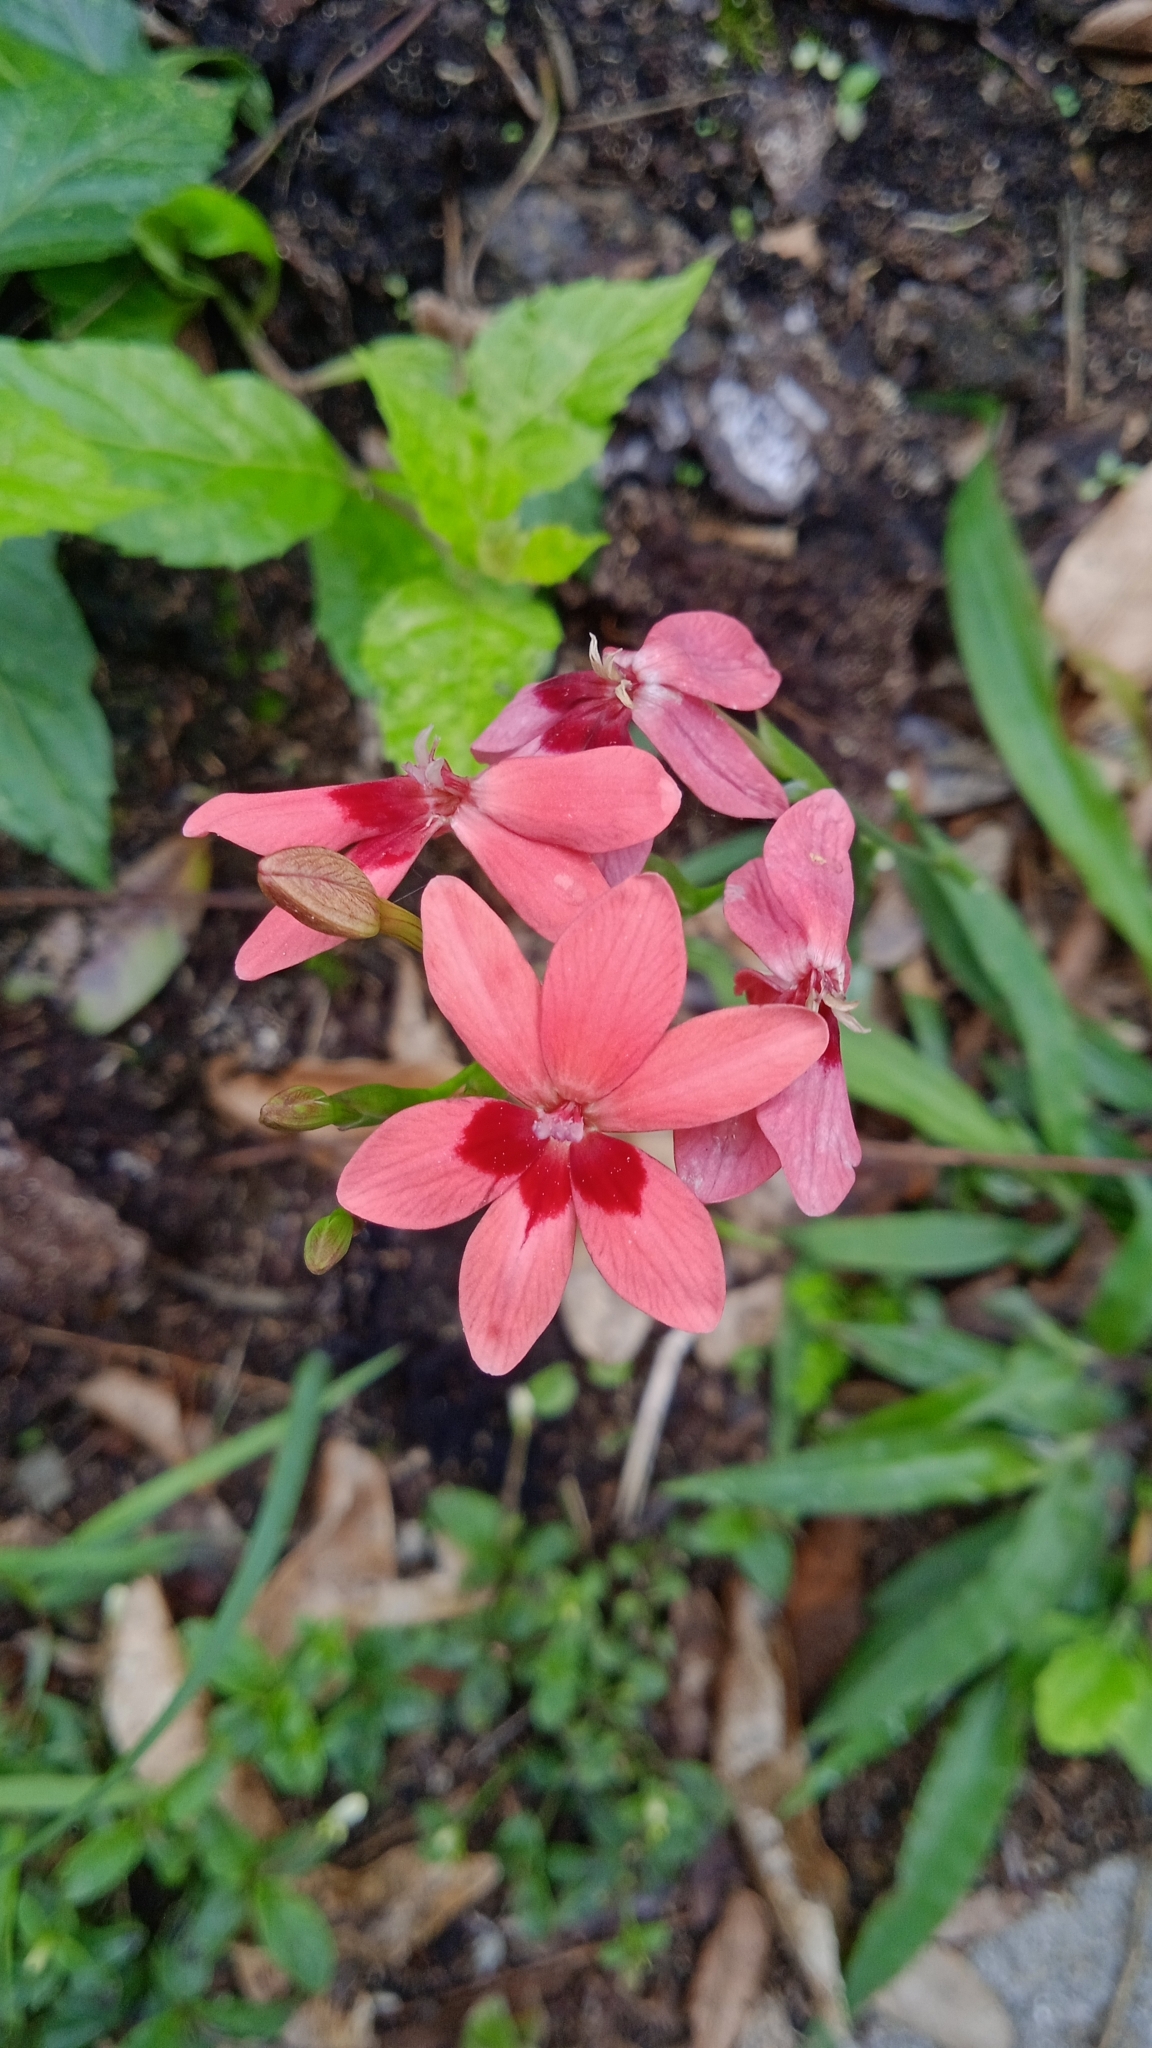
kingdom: Plantae
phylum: Tracheophyta
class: Liliopsida
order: Asparagales
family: Iridaceae
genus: Freesia
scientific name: Freesia laxa
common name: False freesia
